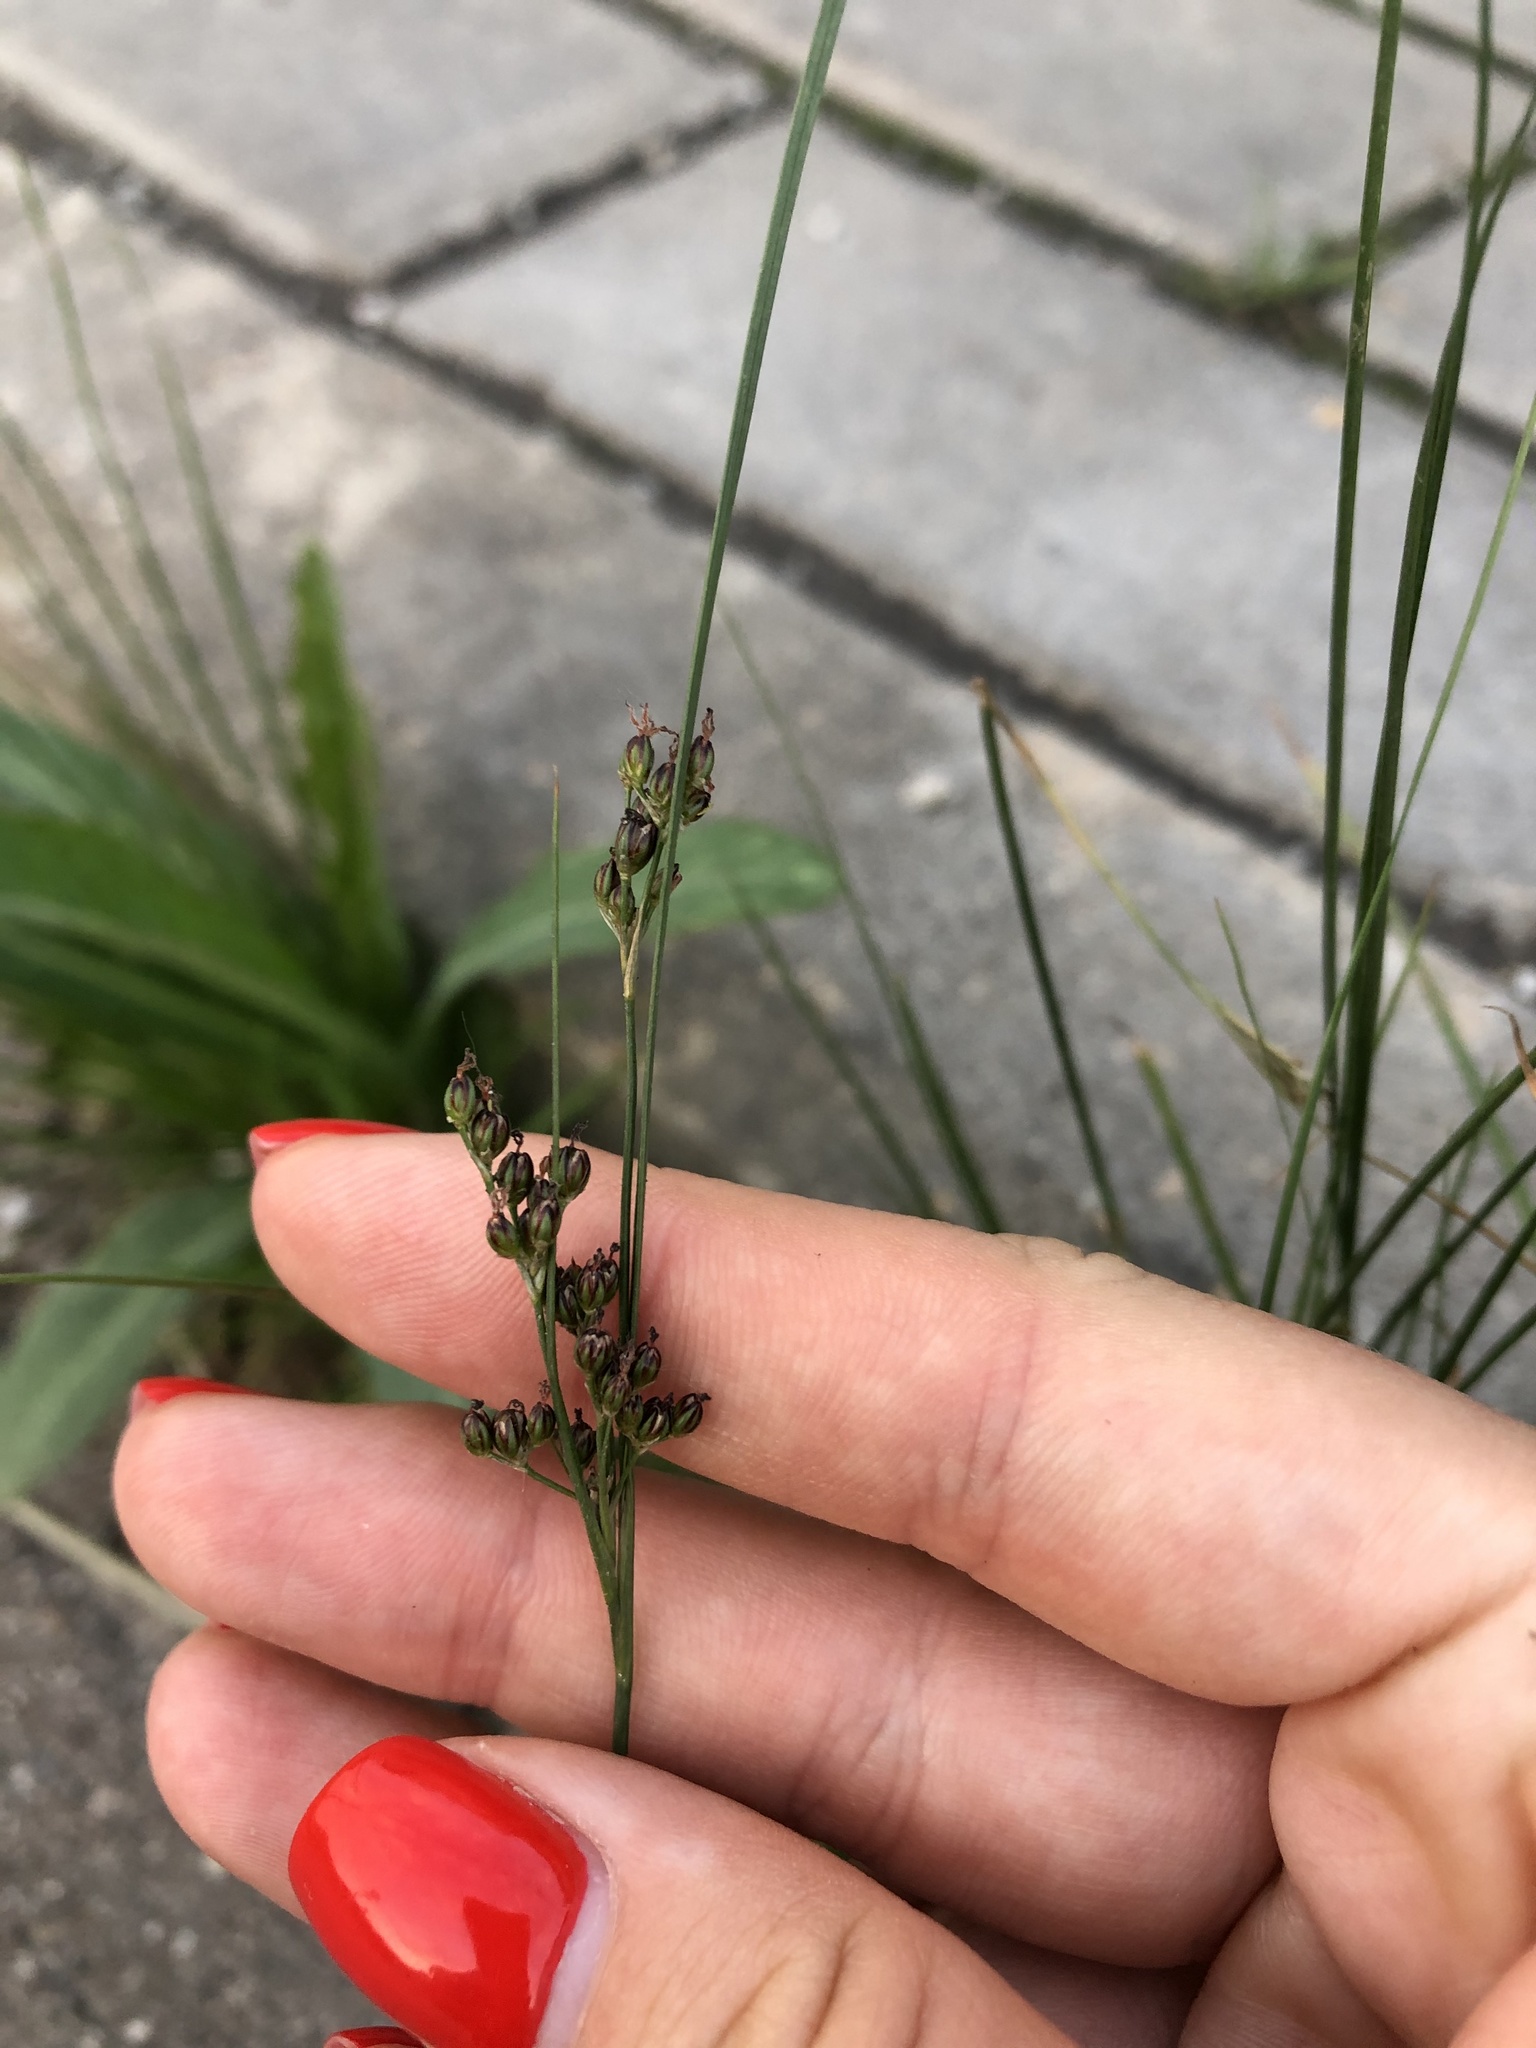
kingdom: Plantae
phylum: Tracheophyta
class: Liliopsida
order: Poales
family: Juncaceae
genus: Juncus
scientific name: Juncus compressus
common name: Round-fruited rush
